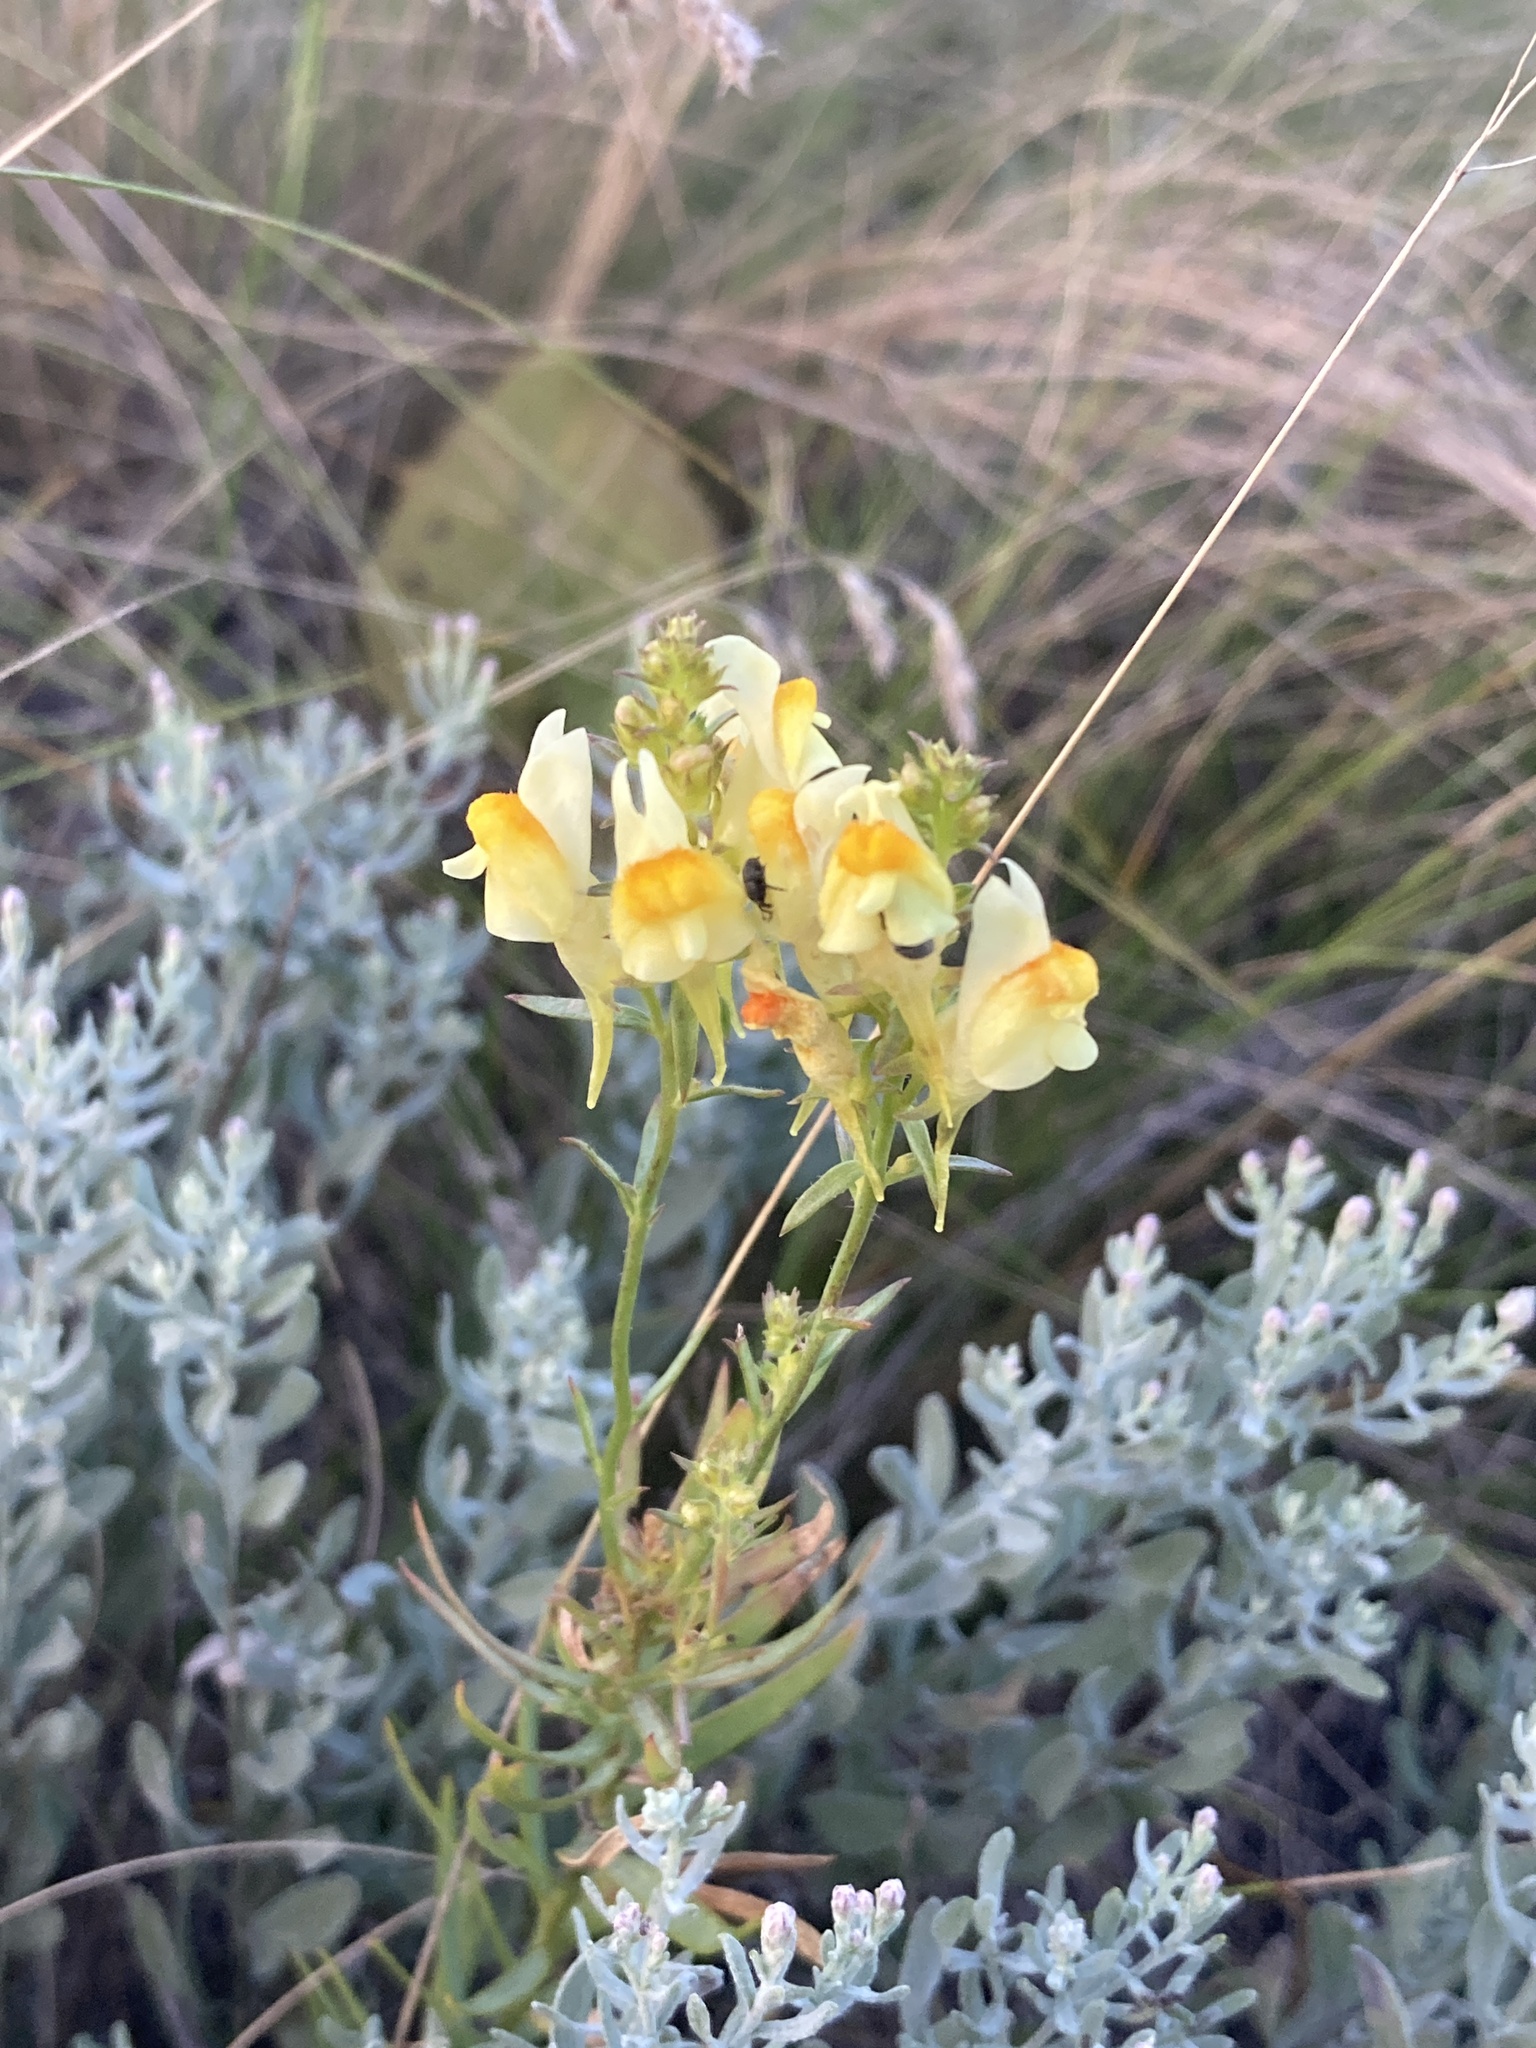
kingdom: Plantae
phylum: Tracheophyta
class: Magnoliopsida
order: Lamiales
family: Plantaginaceae
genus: Linaria
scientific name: Linaria vulgaris
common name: Butter and eggs
